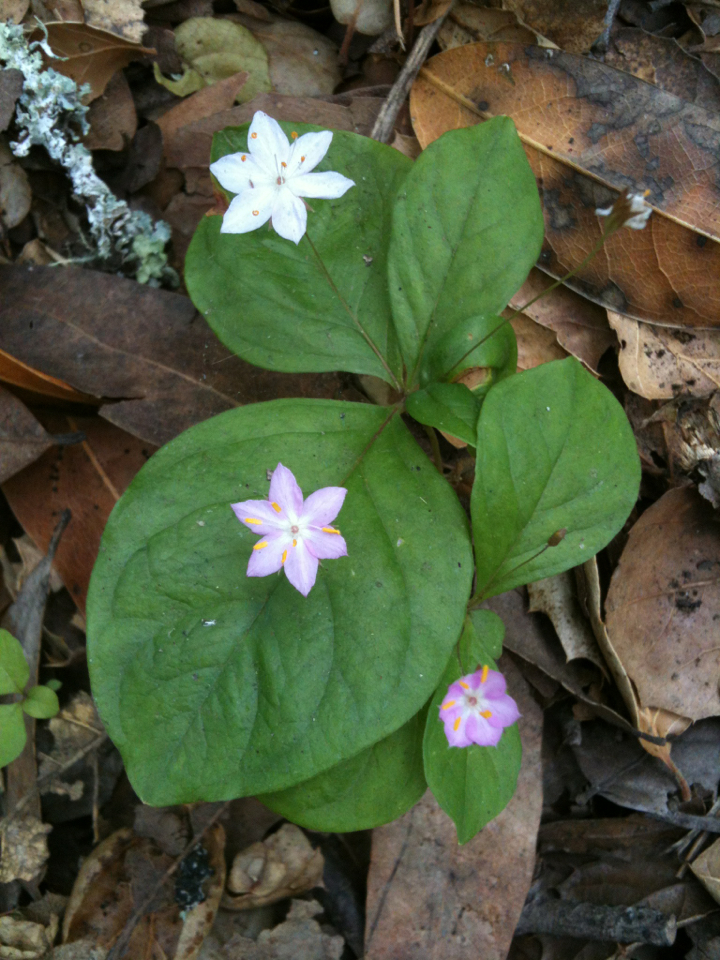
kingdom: Plantae
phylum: Tracheophyta
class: Magnoliopsida
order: Ericales
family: Primulaceae
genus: Lysimachia
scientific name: Lysimachia latifolia
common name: Pacific starflower
